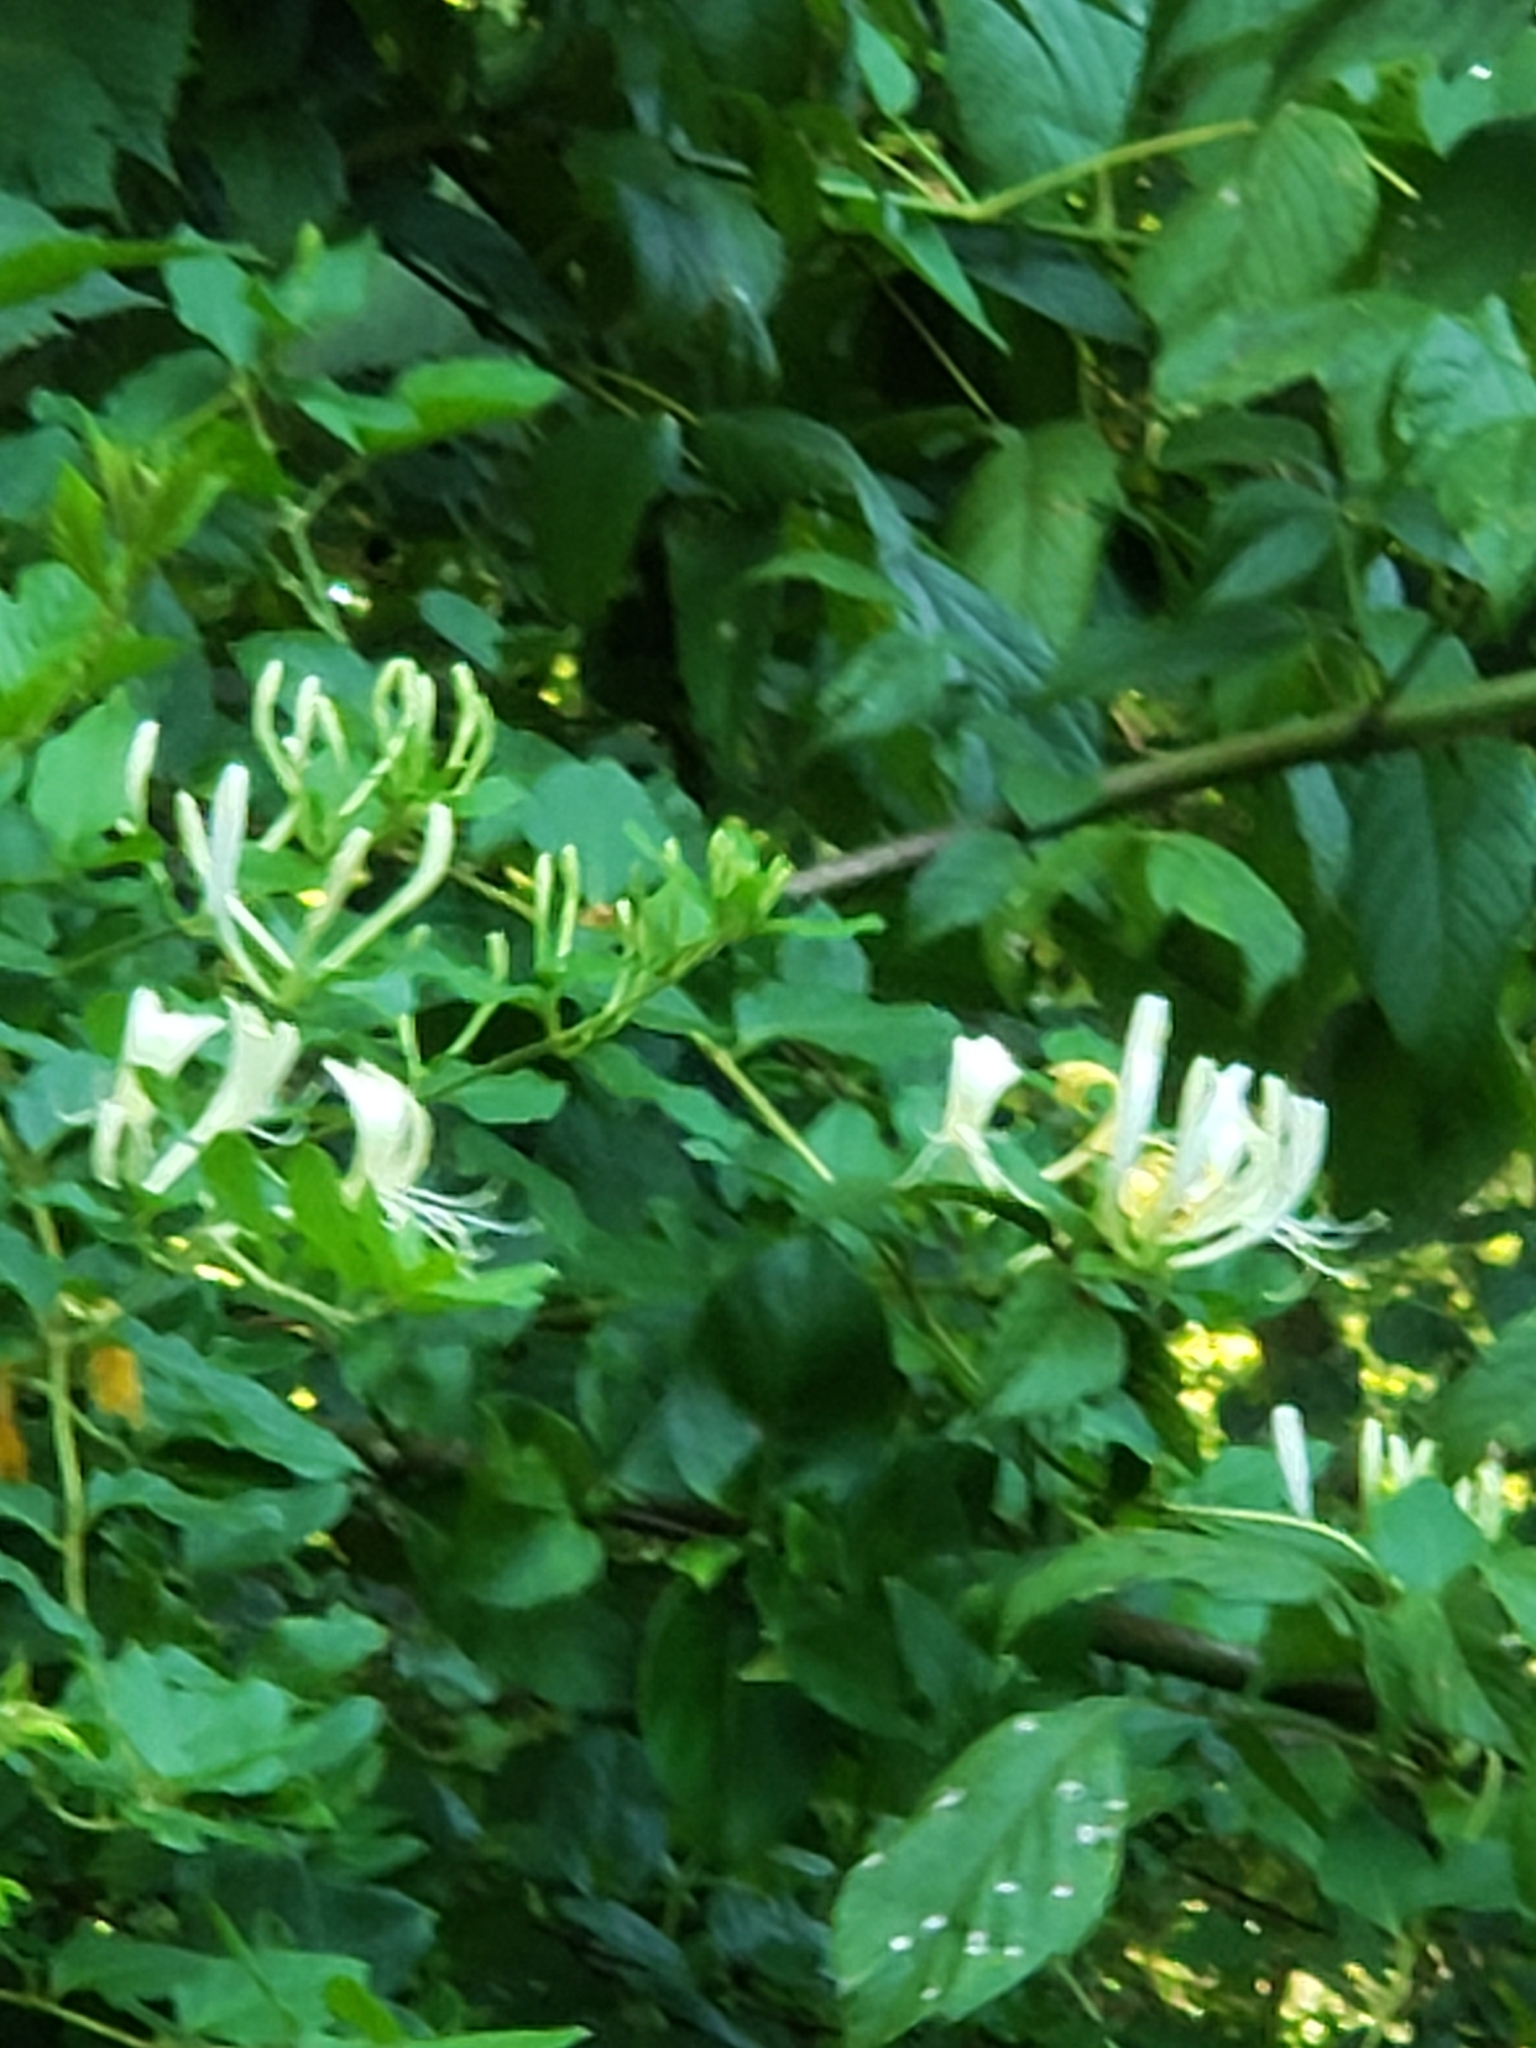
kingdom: Plantae
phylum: Tracheophyta
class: Magnoliopsida
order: Dipsacales
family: Caprifoliaceae
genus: Lonicera
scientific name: Lonicera japonica
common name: Japanese honeysuckle
